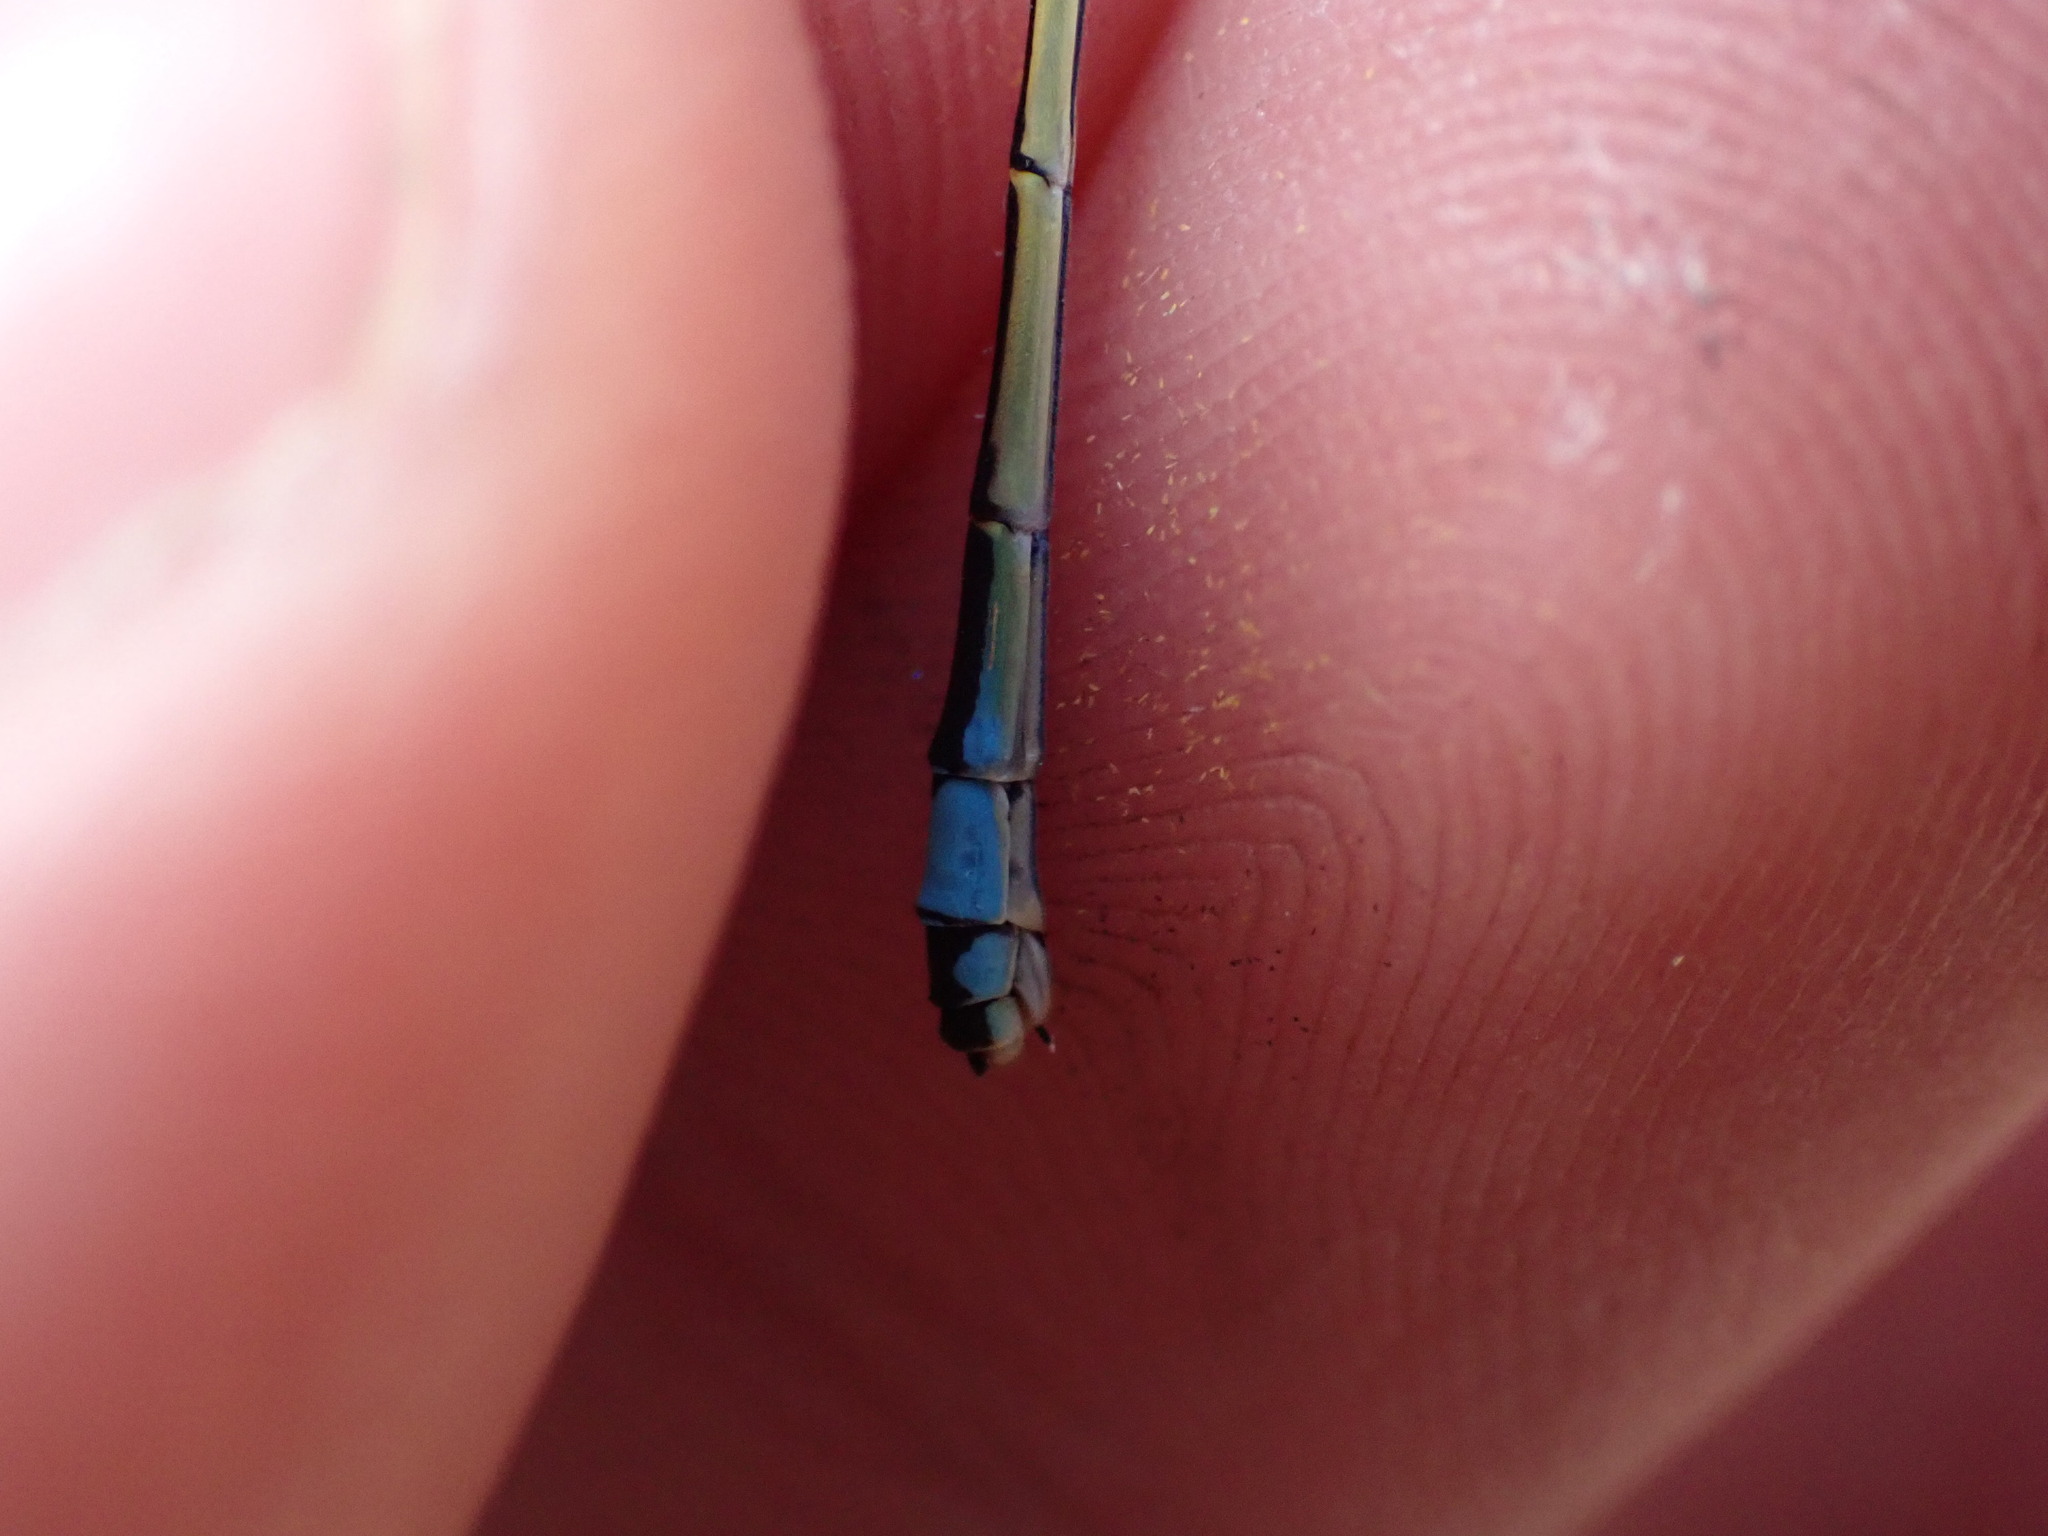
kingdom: Animalia
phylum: Arthropoda
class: Insecta
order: Odonata
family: Coenagrionidae
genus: Ischnura
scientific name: Ischnura elegans
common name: Blue-tailed damselfly
